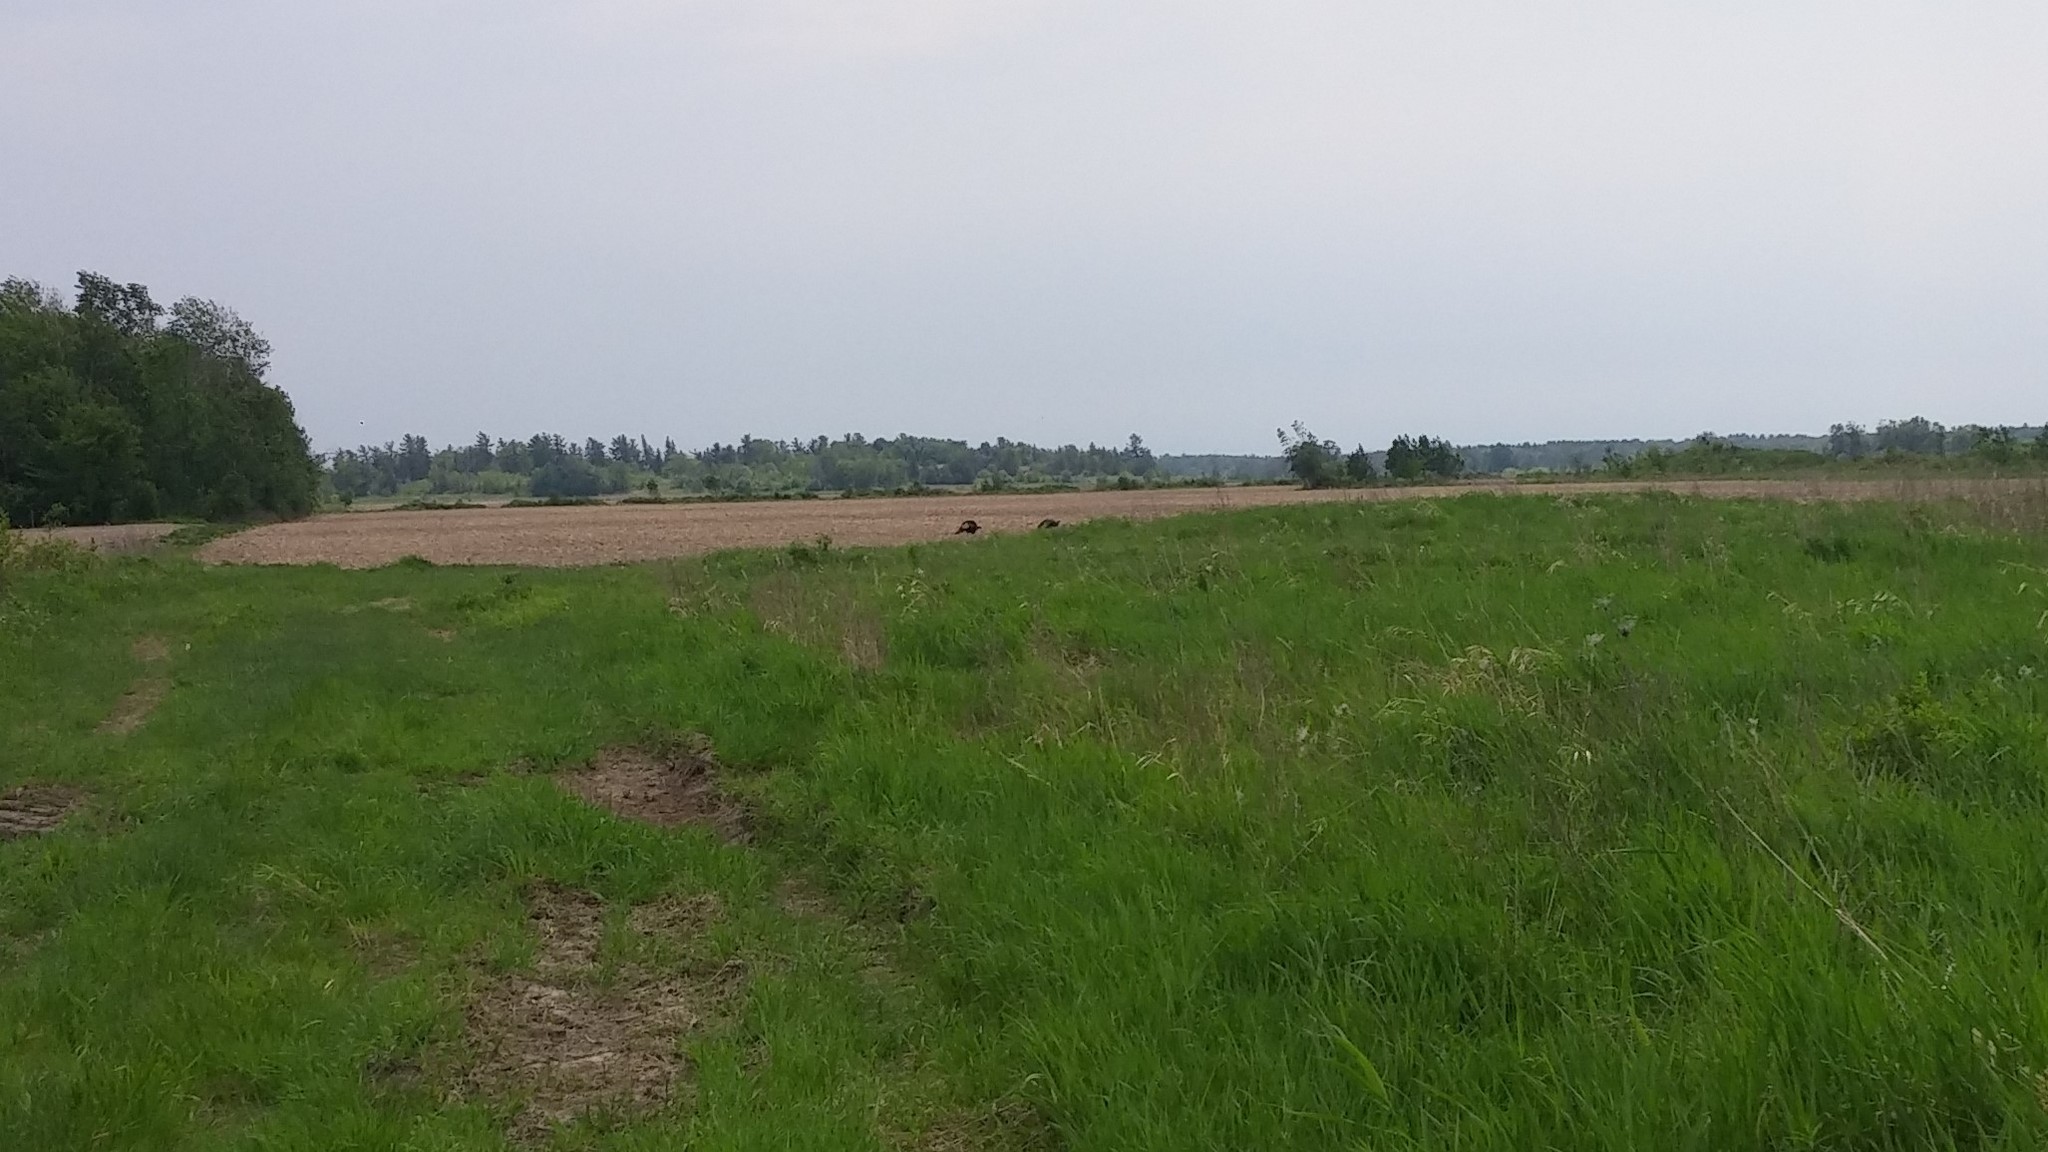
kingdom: Animalia
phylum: Chordata
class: Aves
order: Galliformes
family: Phasianidae
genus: Meleagris
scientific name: Meleagris gallopavo
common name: Wild turkey
